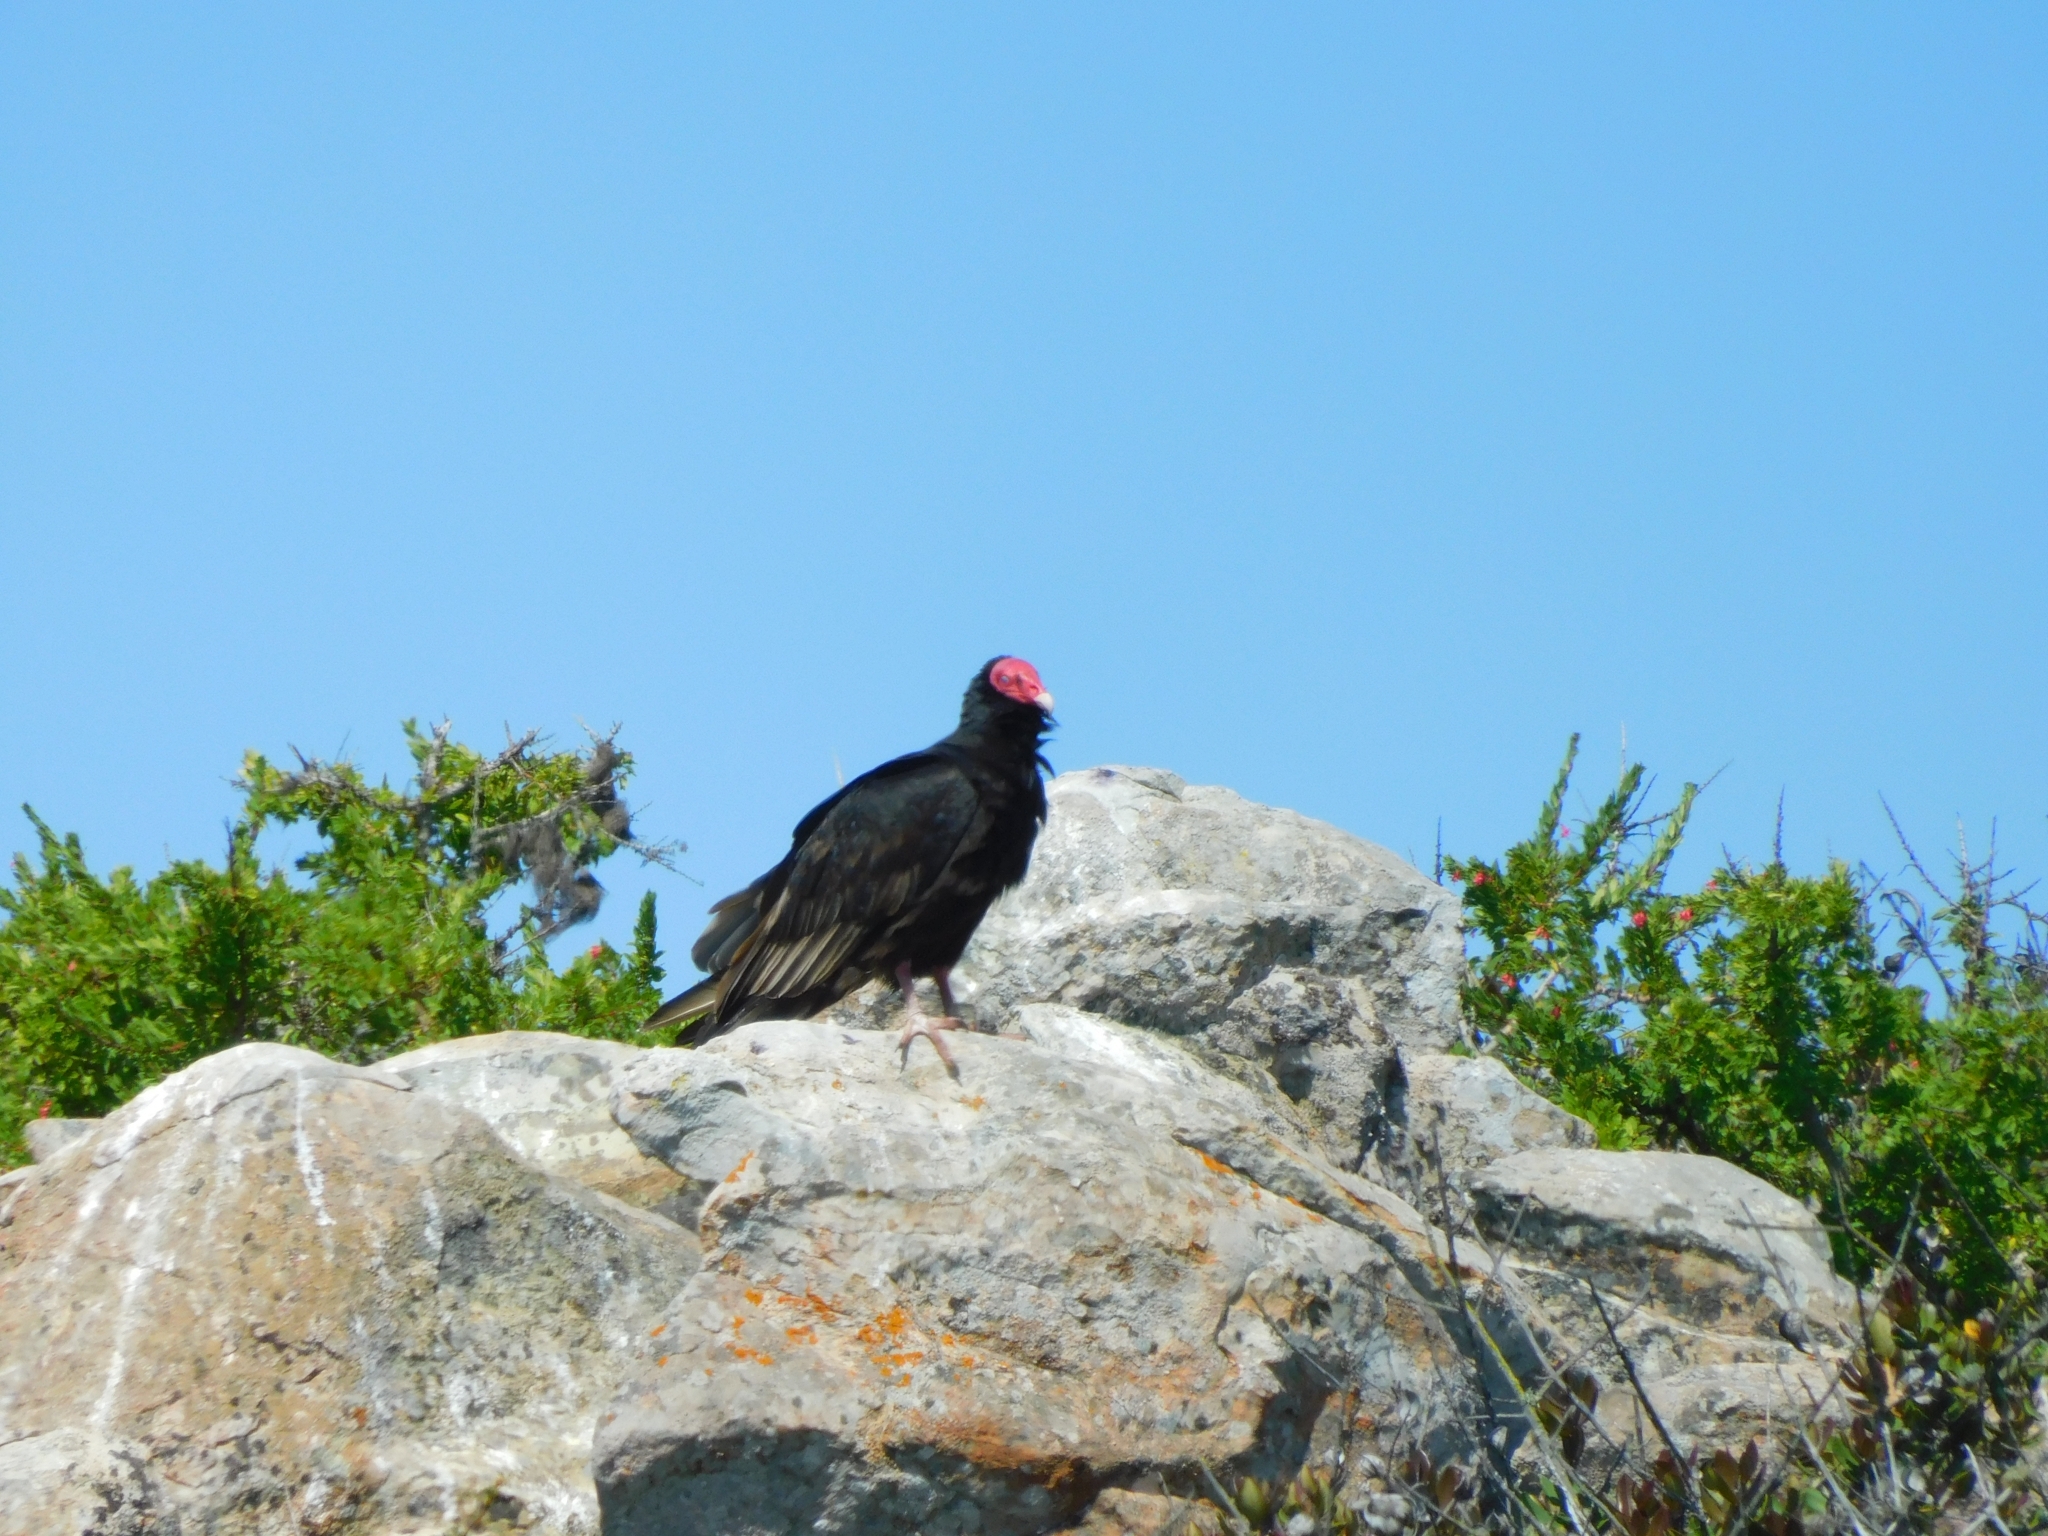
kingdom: Animalia
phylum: Chordata
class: Aves
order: Accipitriformes
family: Cathartidae
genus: Cathartes
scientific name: Cathartes aura
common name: Turkey vulture
